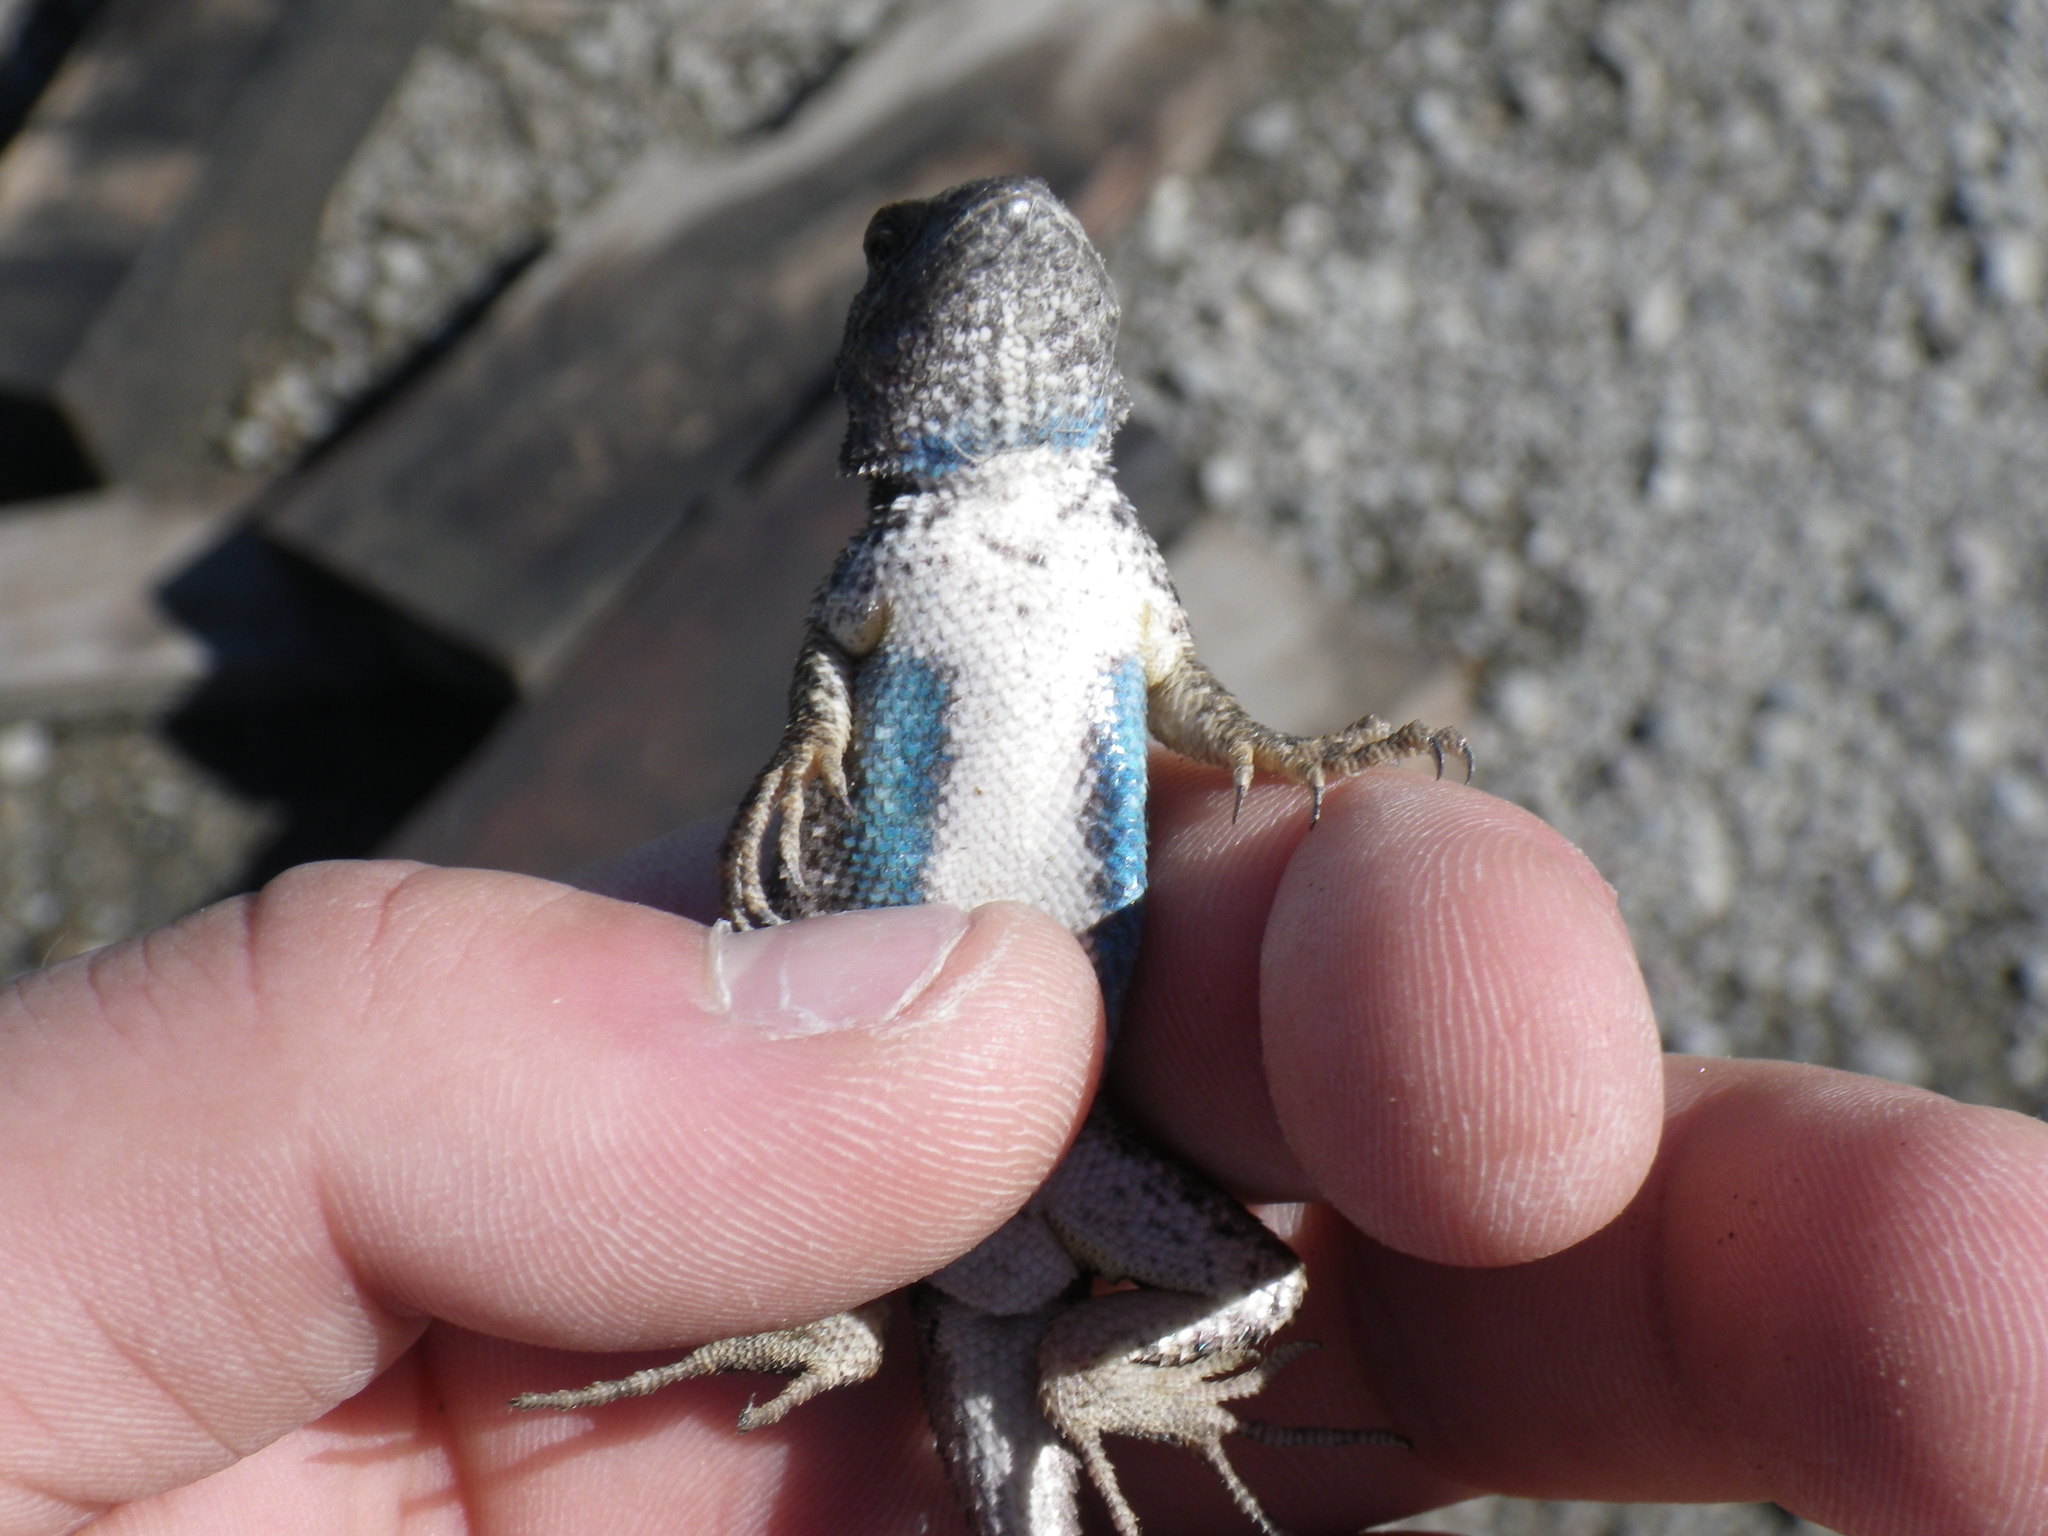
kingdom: Animalia
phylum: Chordata
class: Squamata
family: Phrynosomatidae
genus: Sceloporus
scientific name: Sceloporus occidentalis
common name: Western fence lizard
